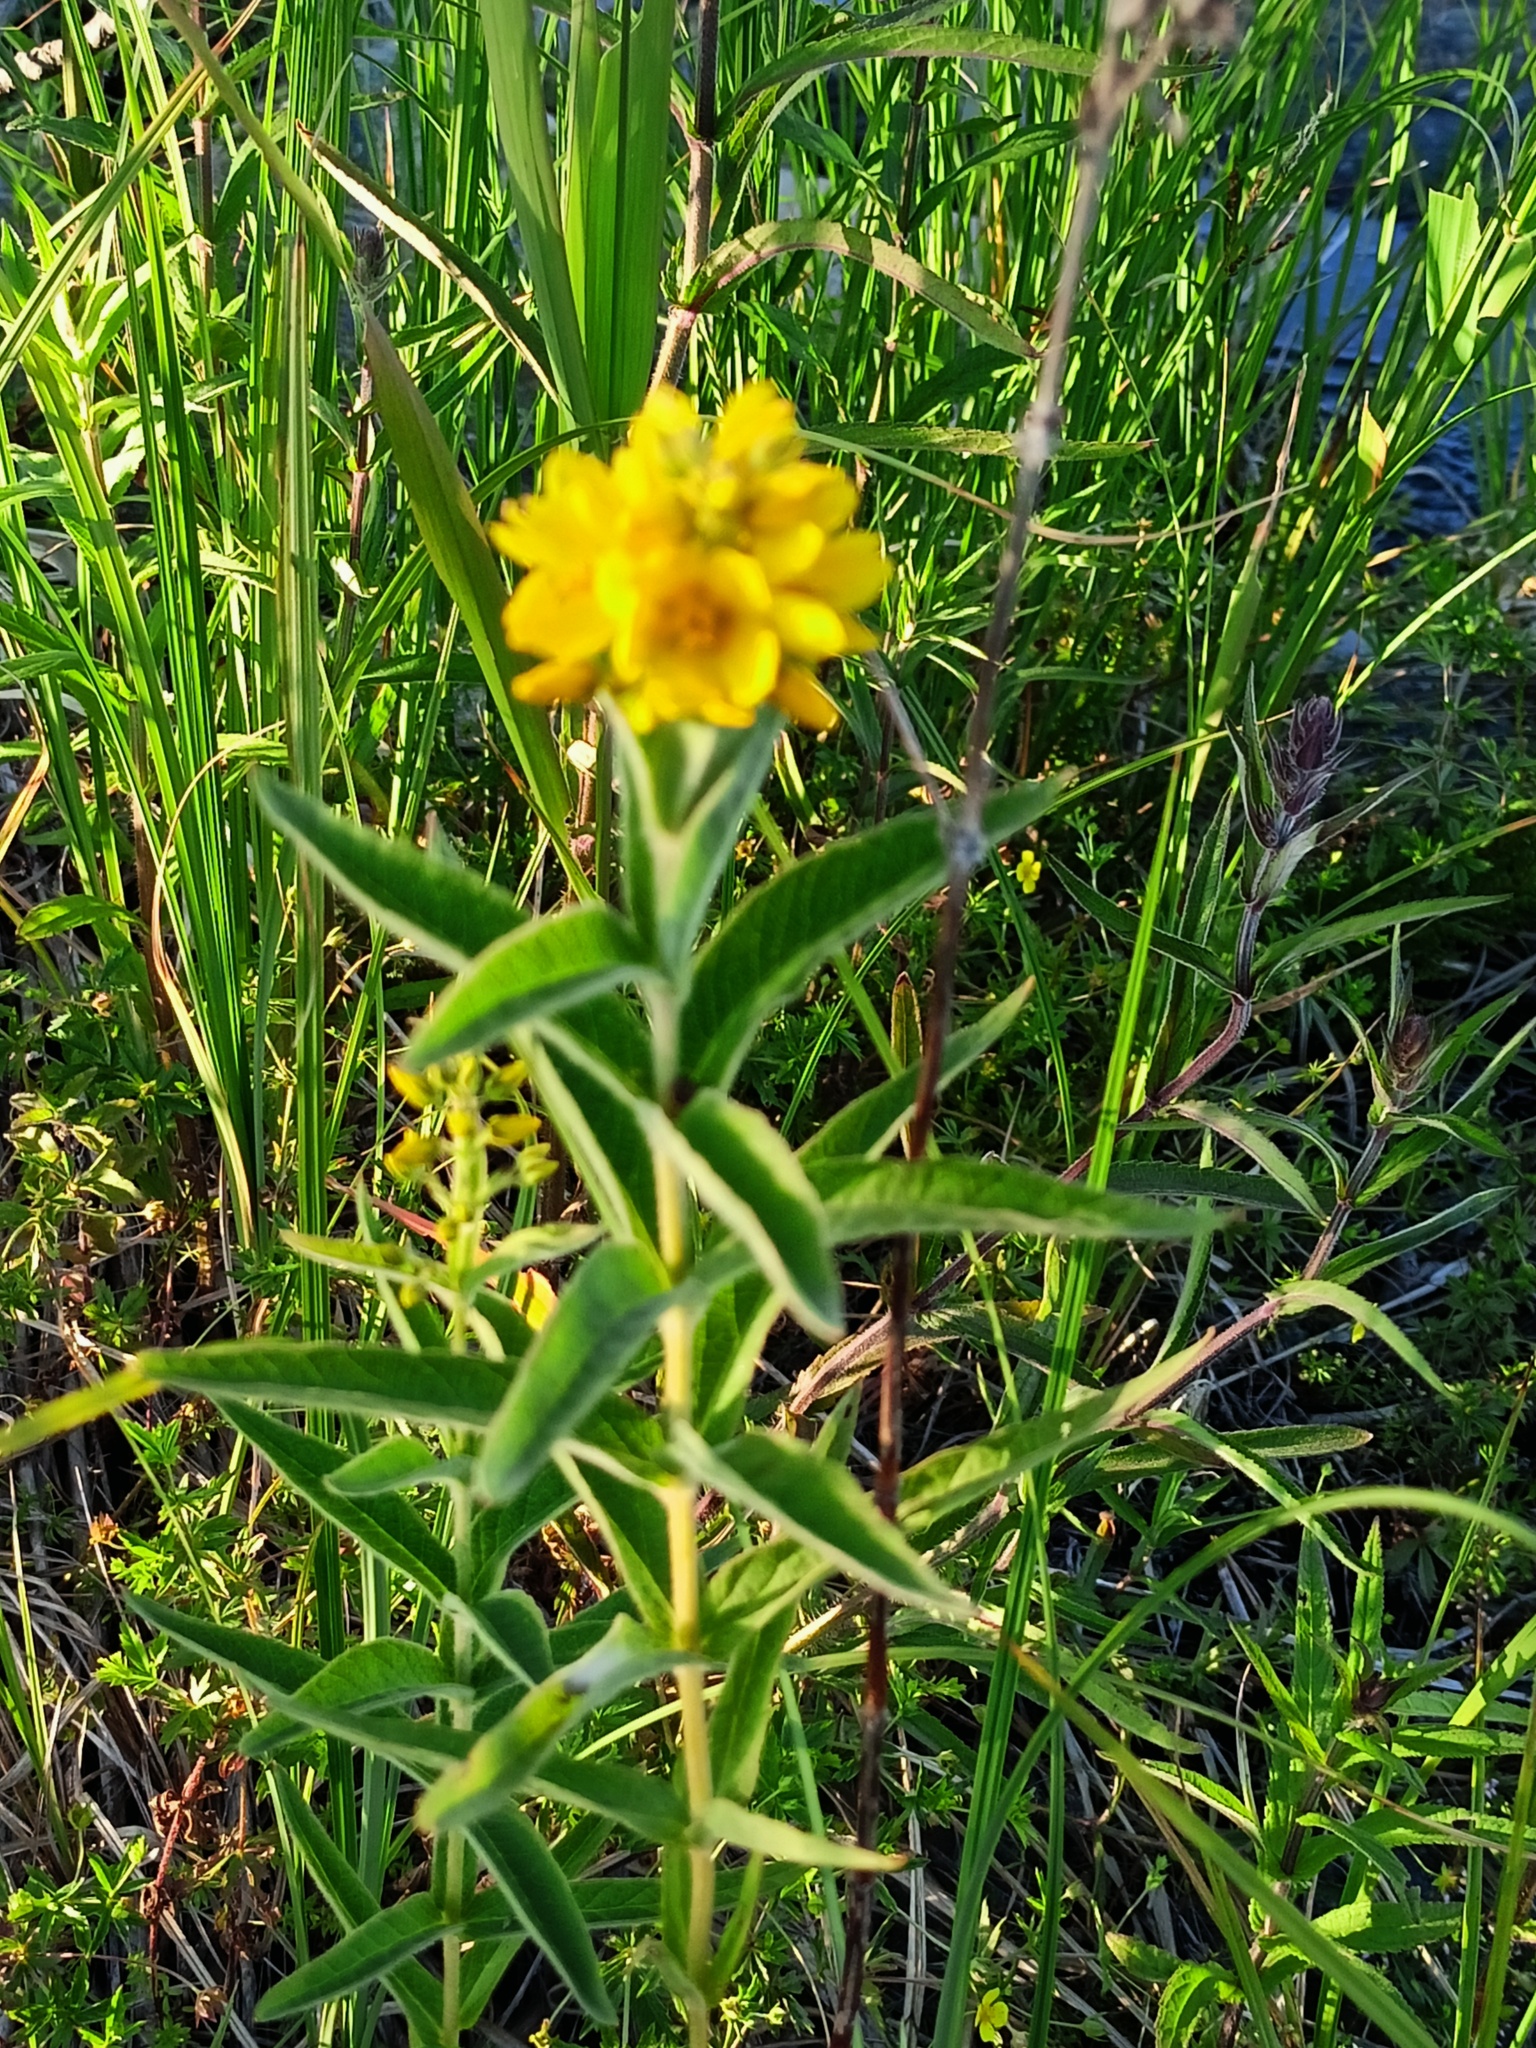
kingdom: Plantae
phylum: Tracheophyta
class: Magnoliopsida
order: Ericales
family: Primulaceae
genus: Lysimachia
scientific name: Lysimachia vulgaris
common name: Yellow loosestrife
